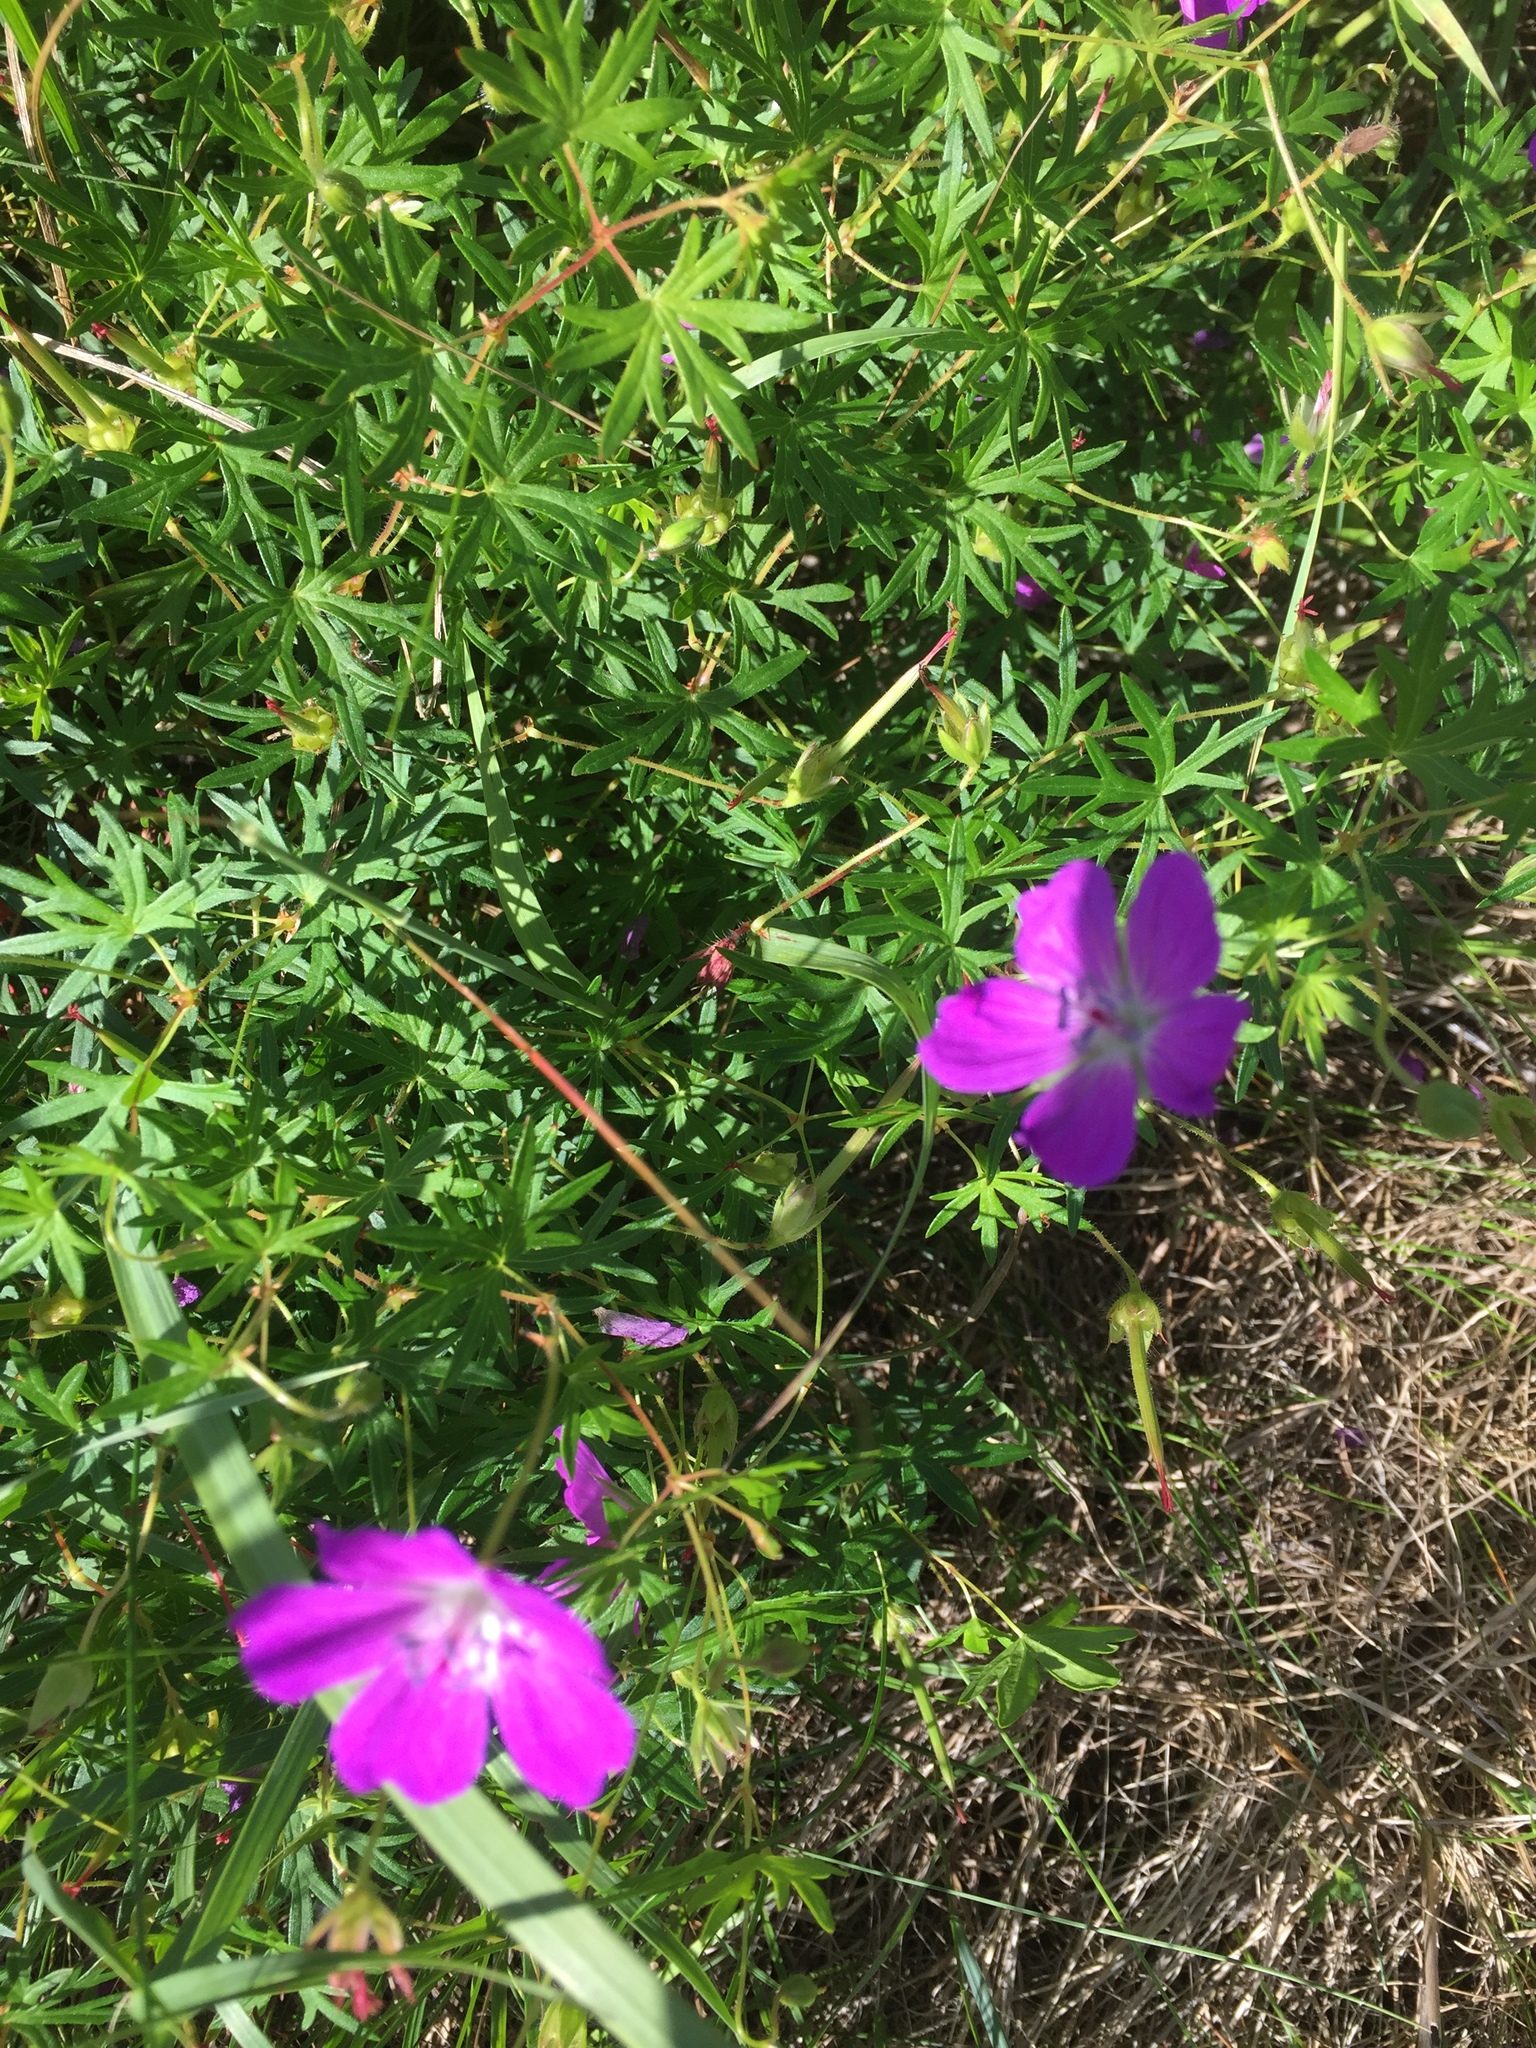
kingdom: Plantae
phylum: Tracheophyta
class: Magnoliopsida
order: Geraniales
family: Geraniaceae
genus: Geranium
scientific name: Geranium sanguineum
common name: Bloody crane's-bill
